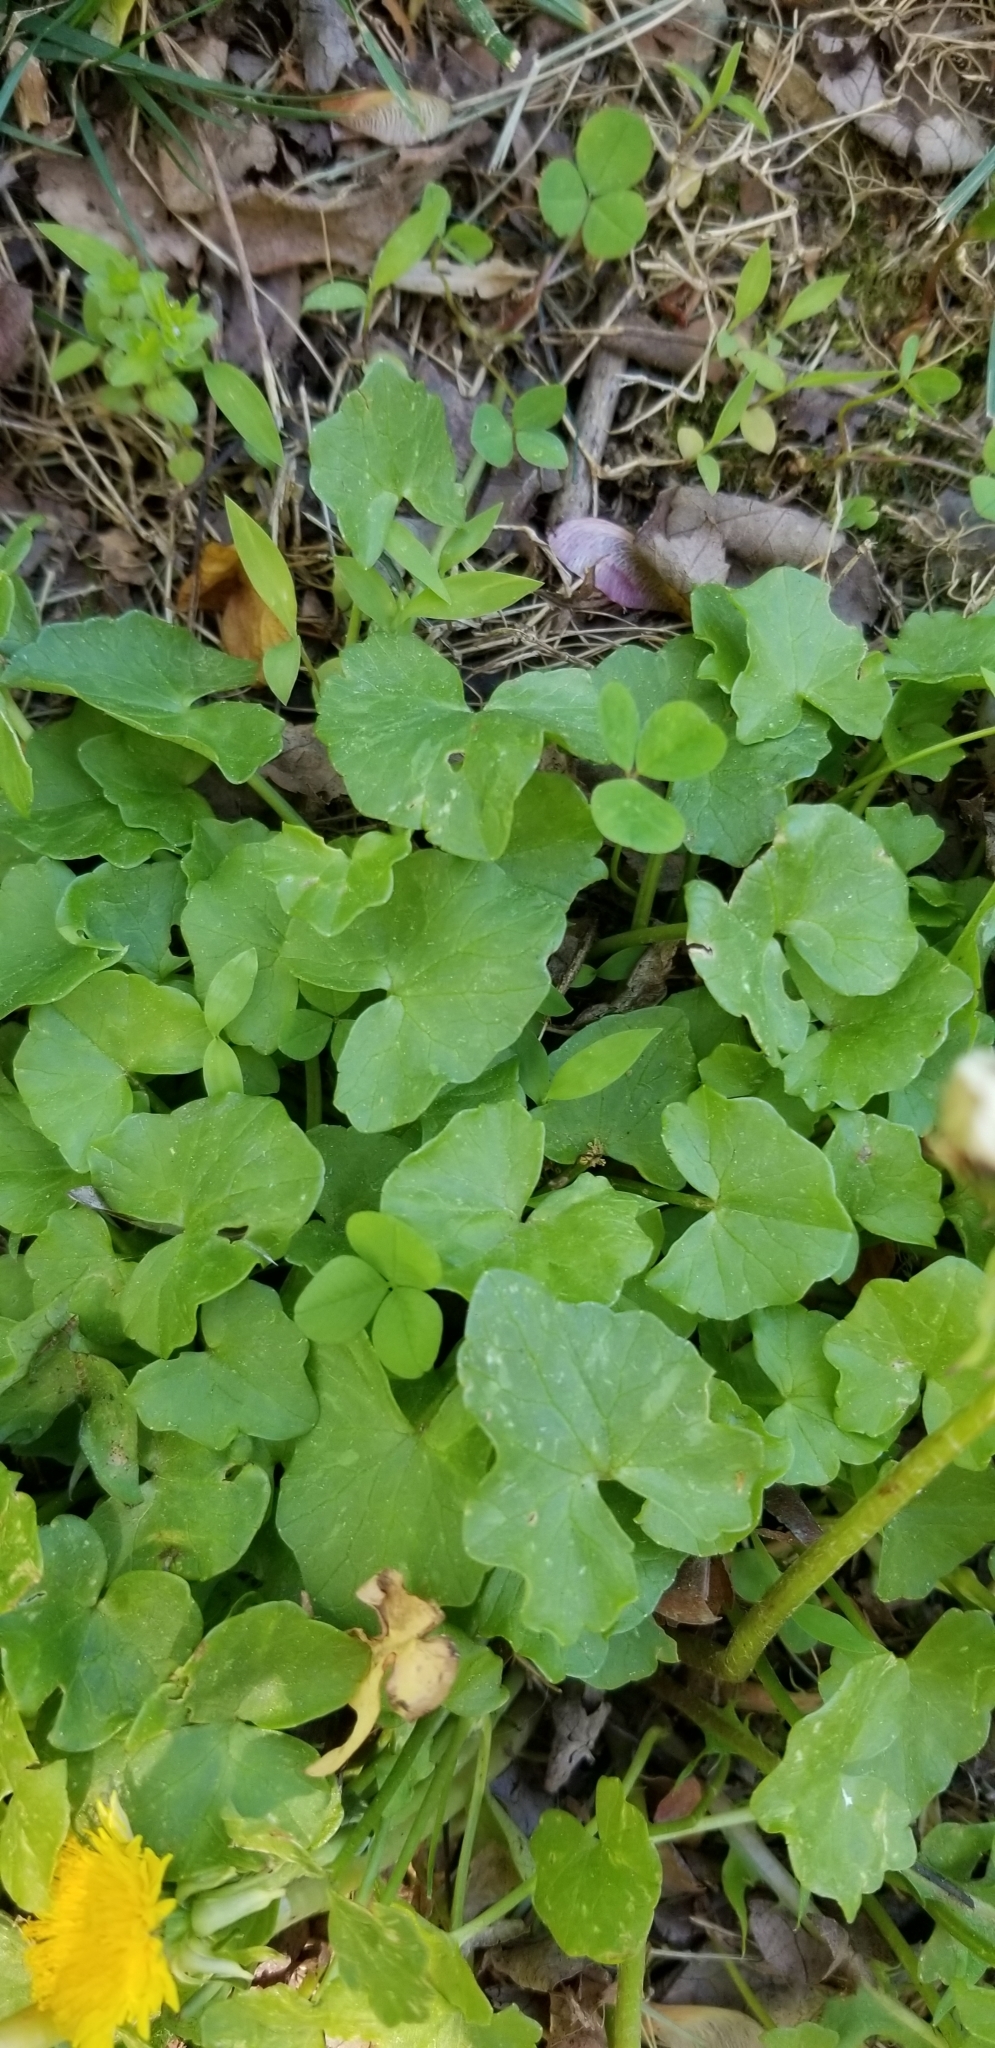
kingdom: Plantae
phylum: Tracheophyta
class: Magnoliopsida
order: Ranunculales
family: Ranunculaceae
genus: Ficaria
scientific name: Ficaria verna
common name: Lesser celandine
